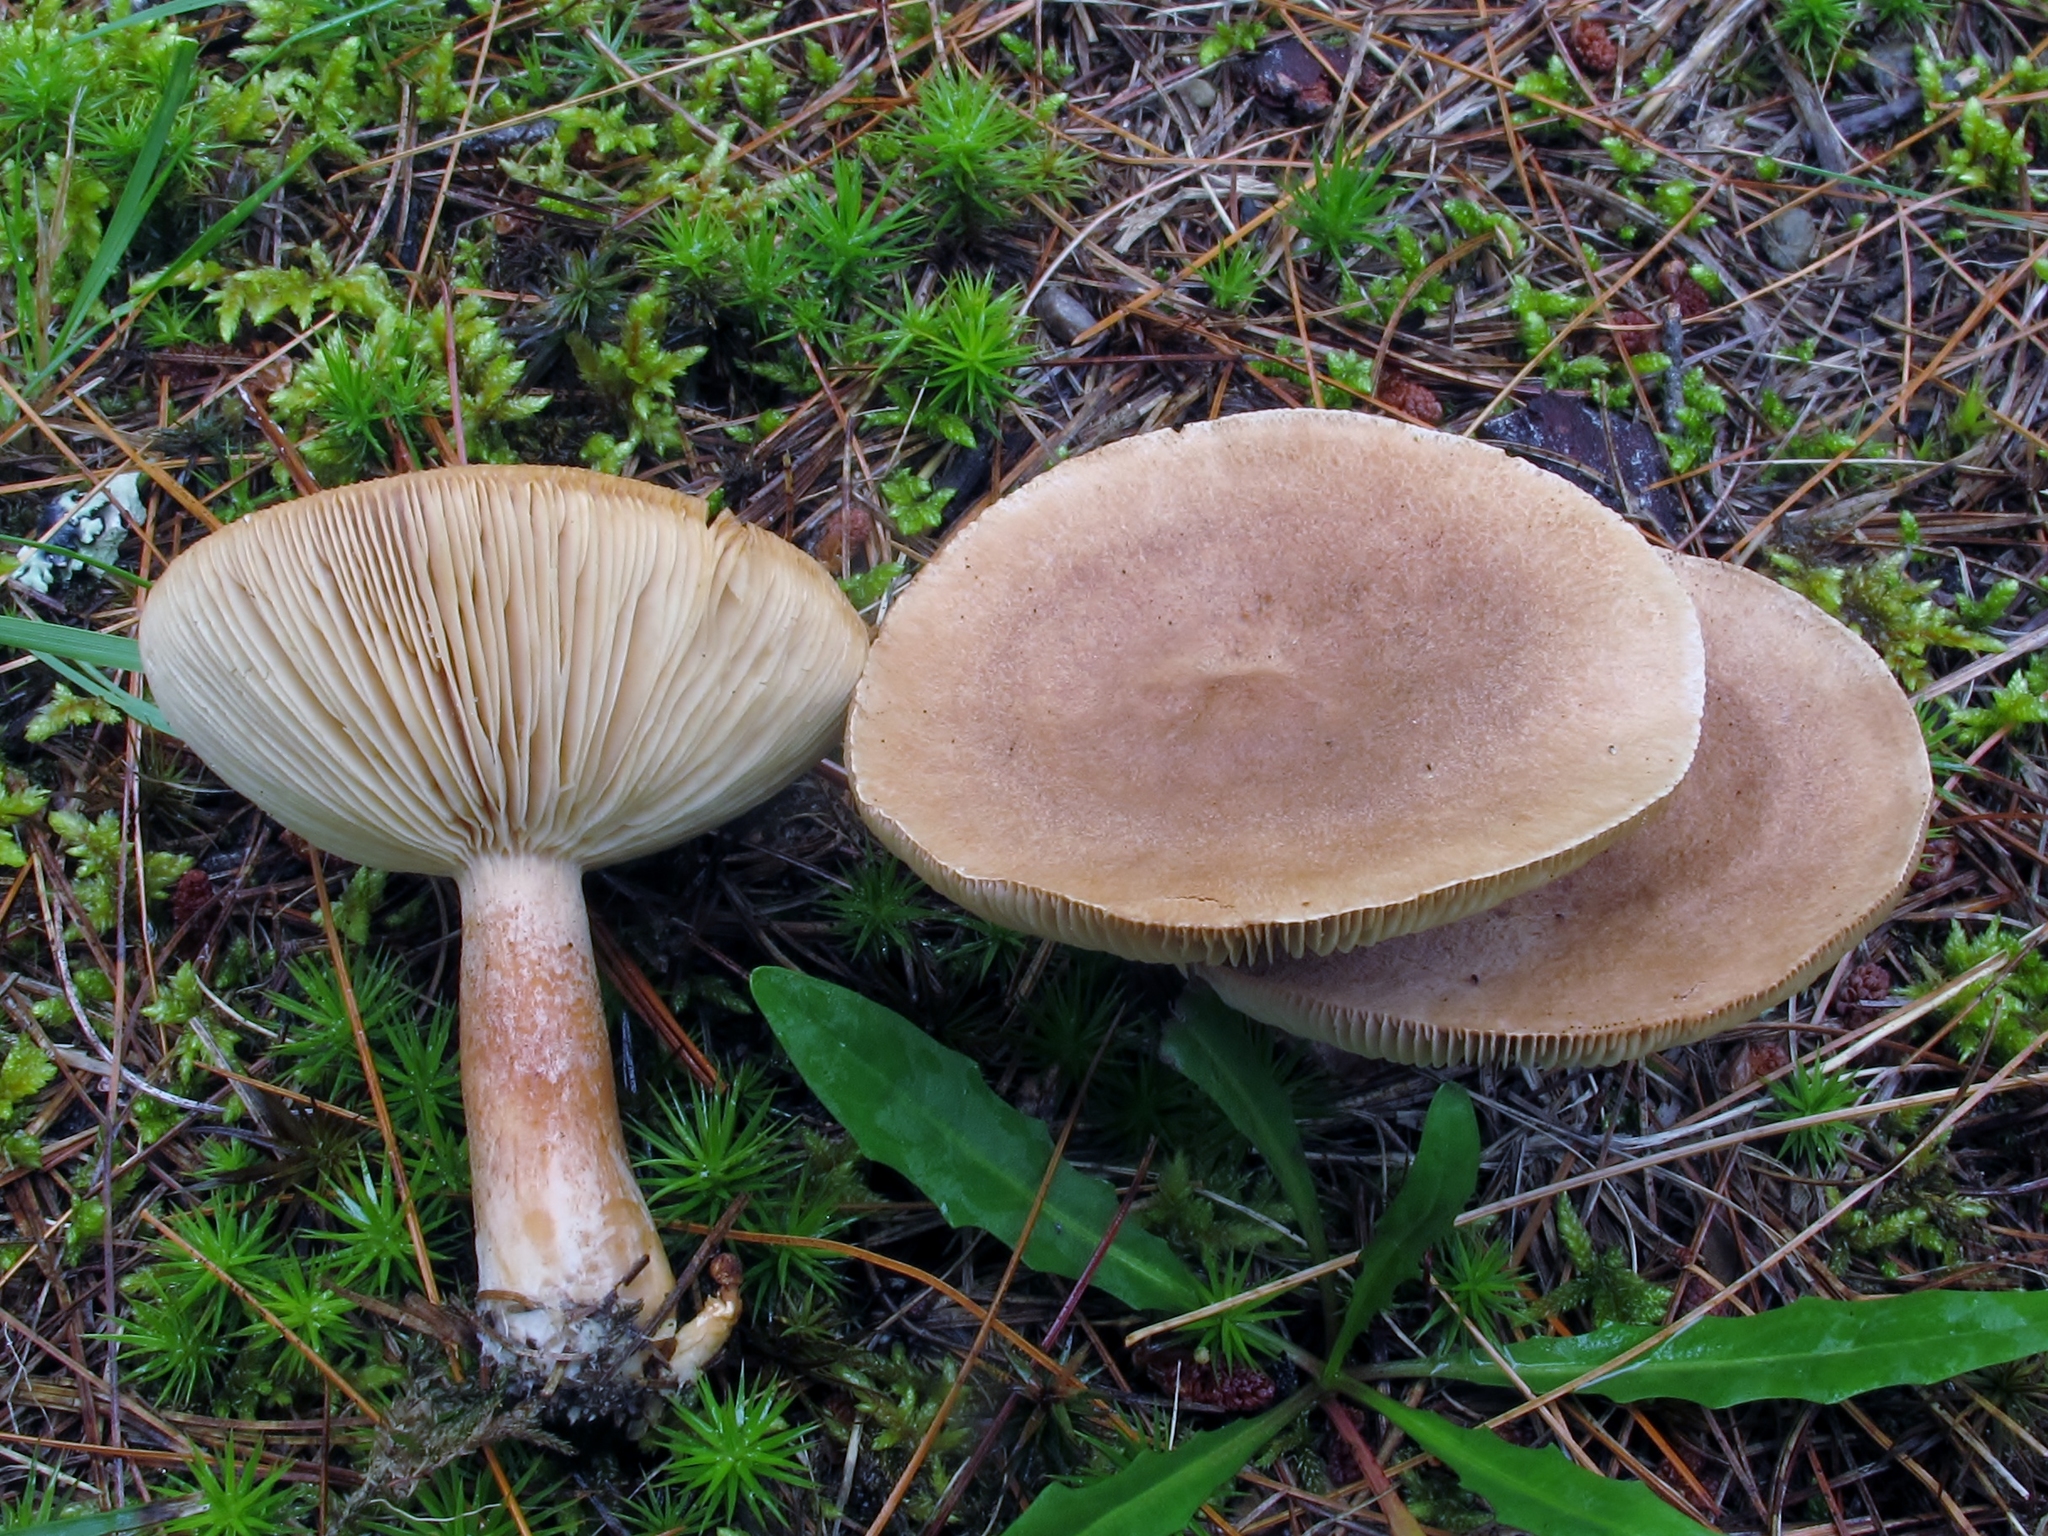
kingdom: Fungi
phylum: Basidiomycota
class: Agaricomycetes
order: Russulales
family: Russulaceae
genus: Lactarius
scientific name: Lactarius camphoratus
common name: Curry milkcap
